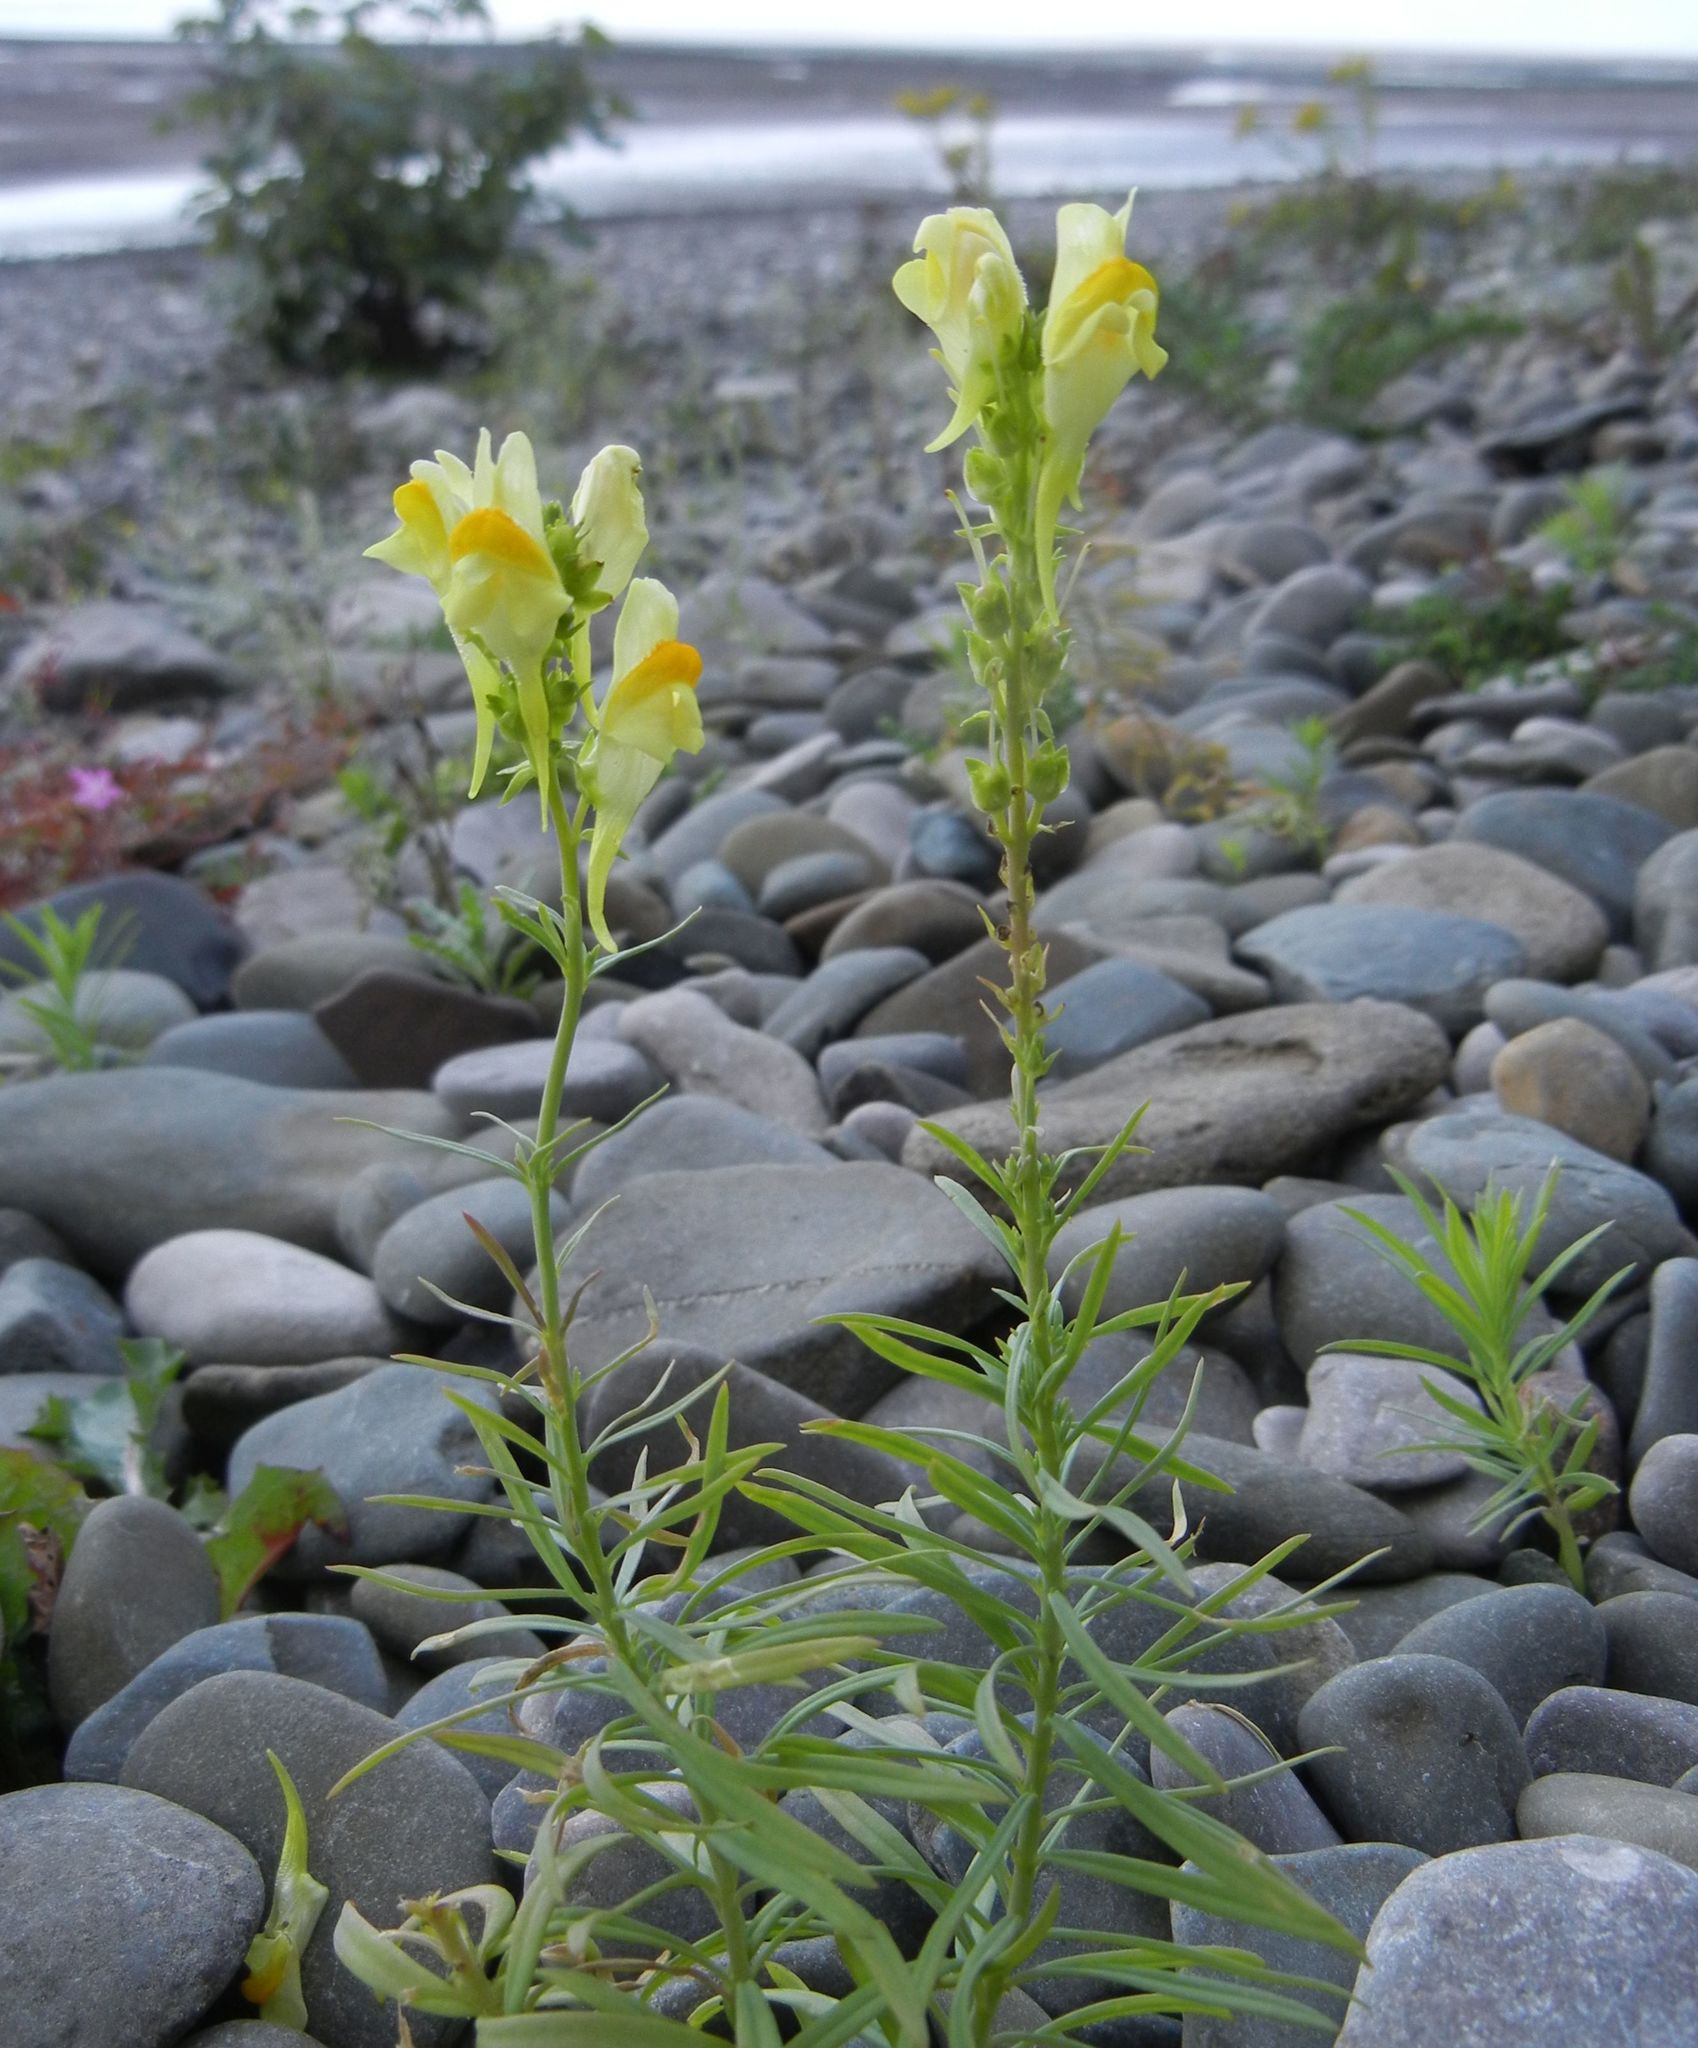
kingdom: Plantae
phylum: Tracheophyta
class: Magnoliopsida
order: Lamiales
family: Plantaginaceae
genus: Linaria
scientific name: Linaria vulgaris
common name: Butter and eggs
